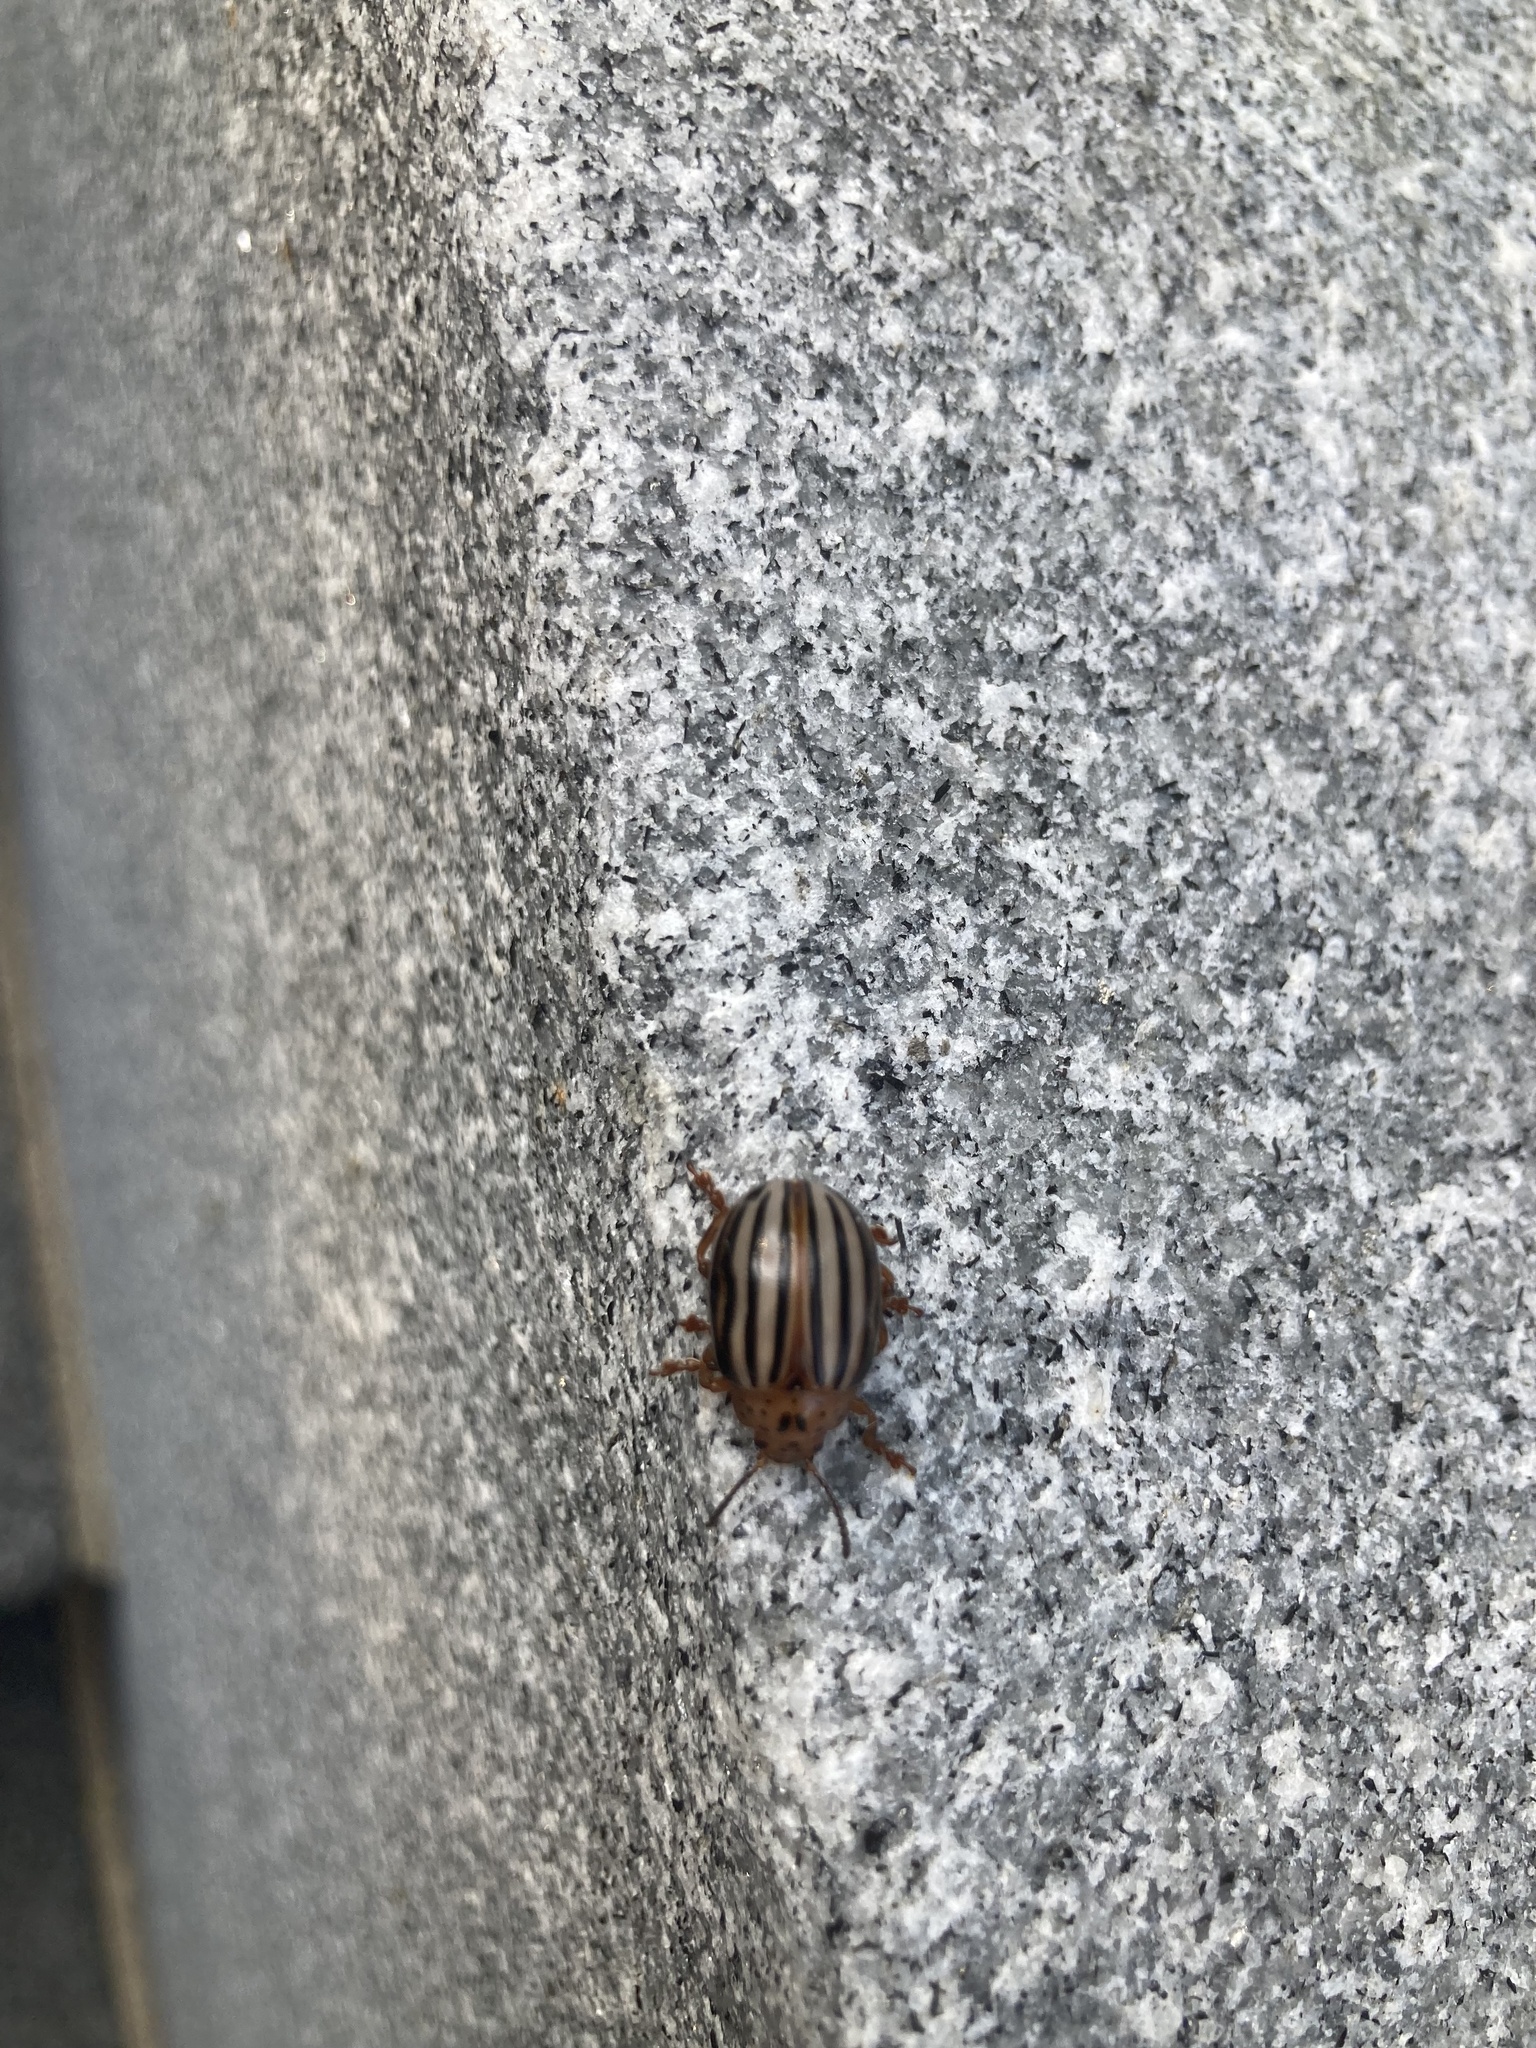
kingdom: Animalia
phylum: Arthropoda
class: Insecta
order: Coleoptera
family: Chrysomelidae
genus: Leptinotarsa
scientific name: Leptinotarsa juncta
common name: False potato beetle
